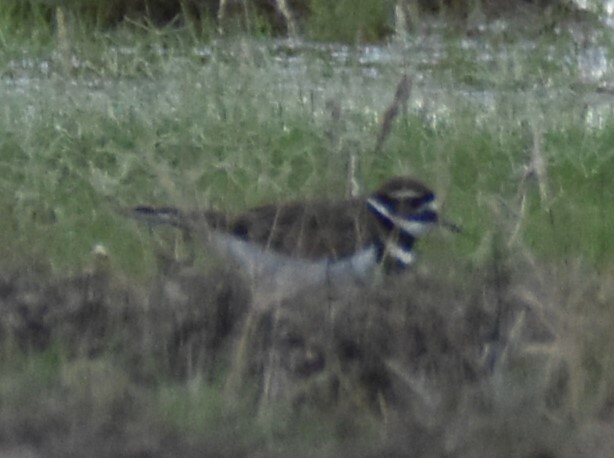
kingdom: Animalia
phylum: Chordata
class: Aves
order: Charadriiformes
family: Charadriidae
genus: Charadrius
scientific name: Charadrius vociferus
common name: Killdeer
